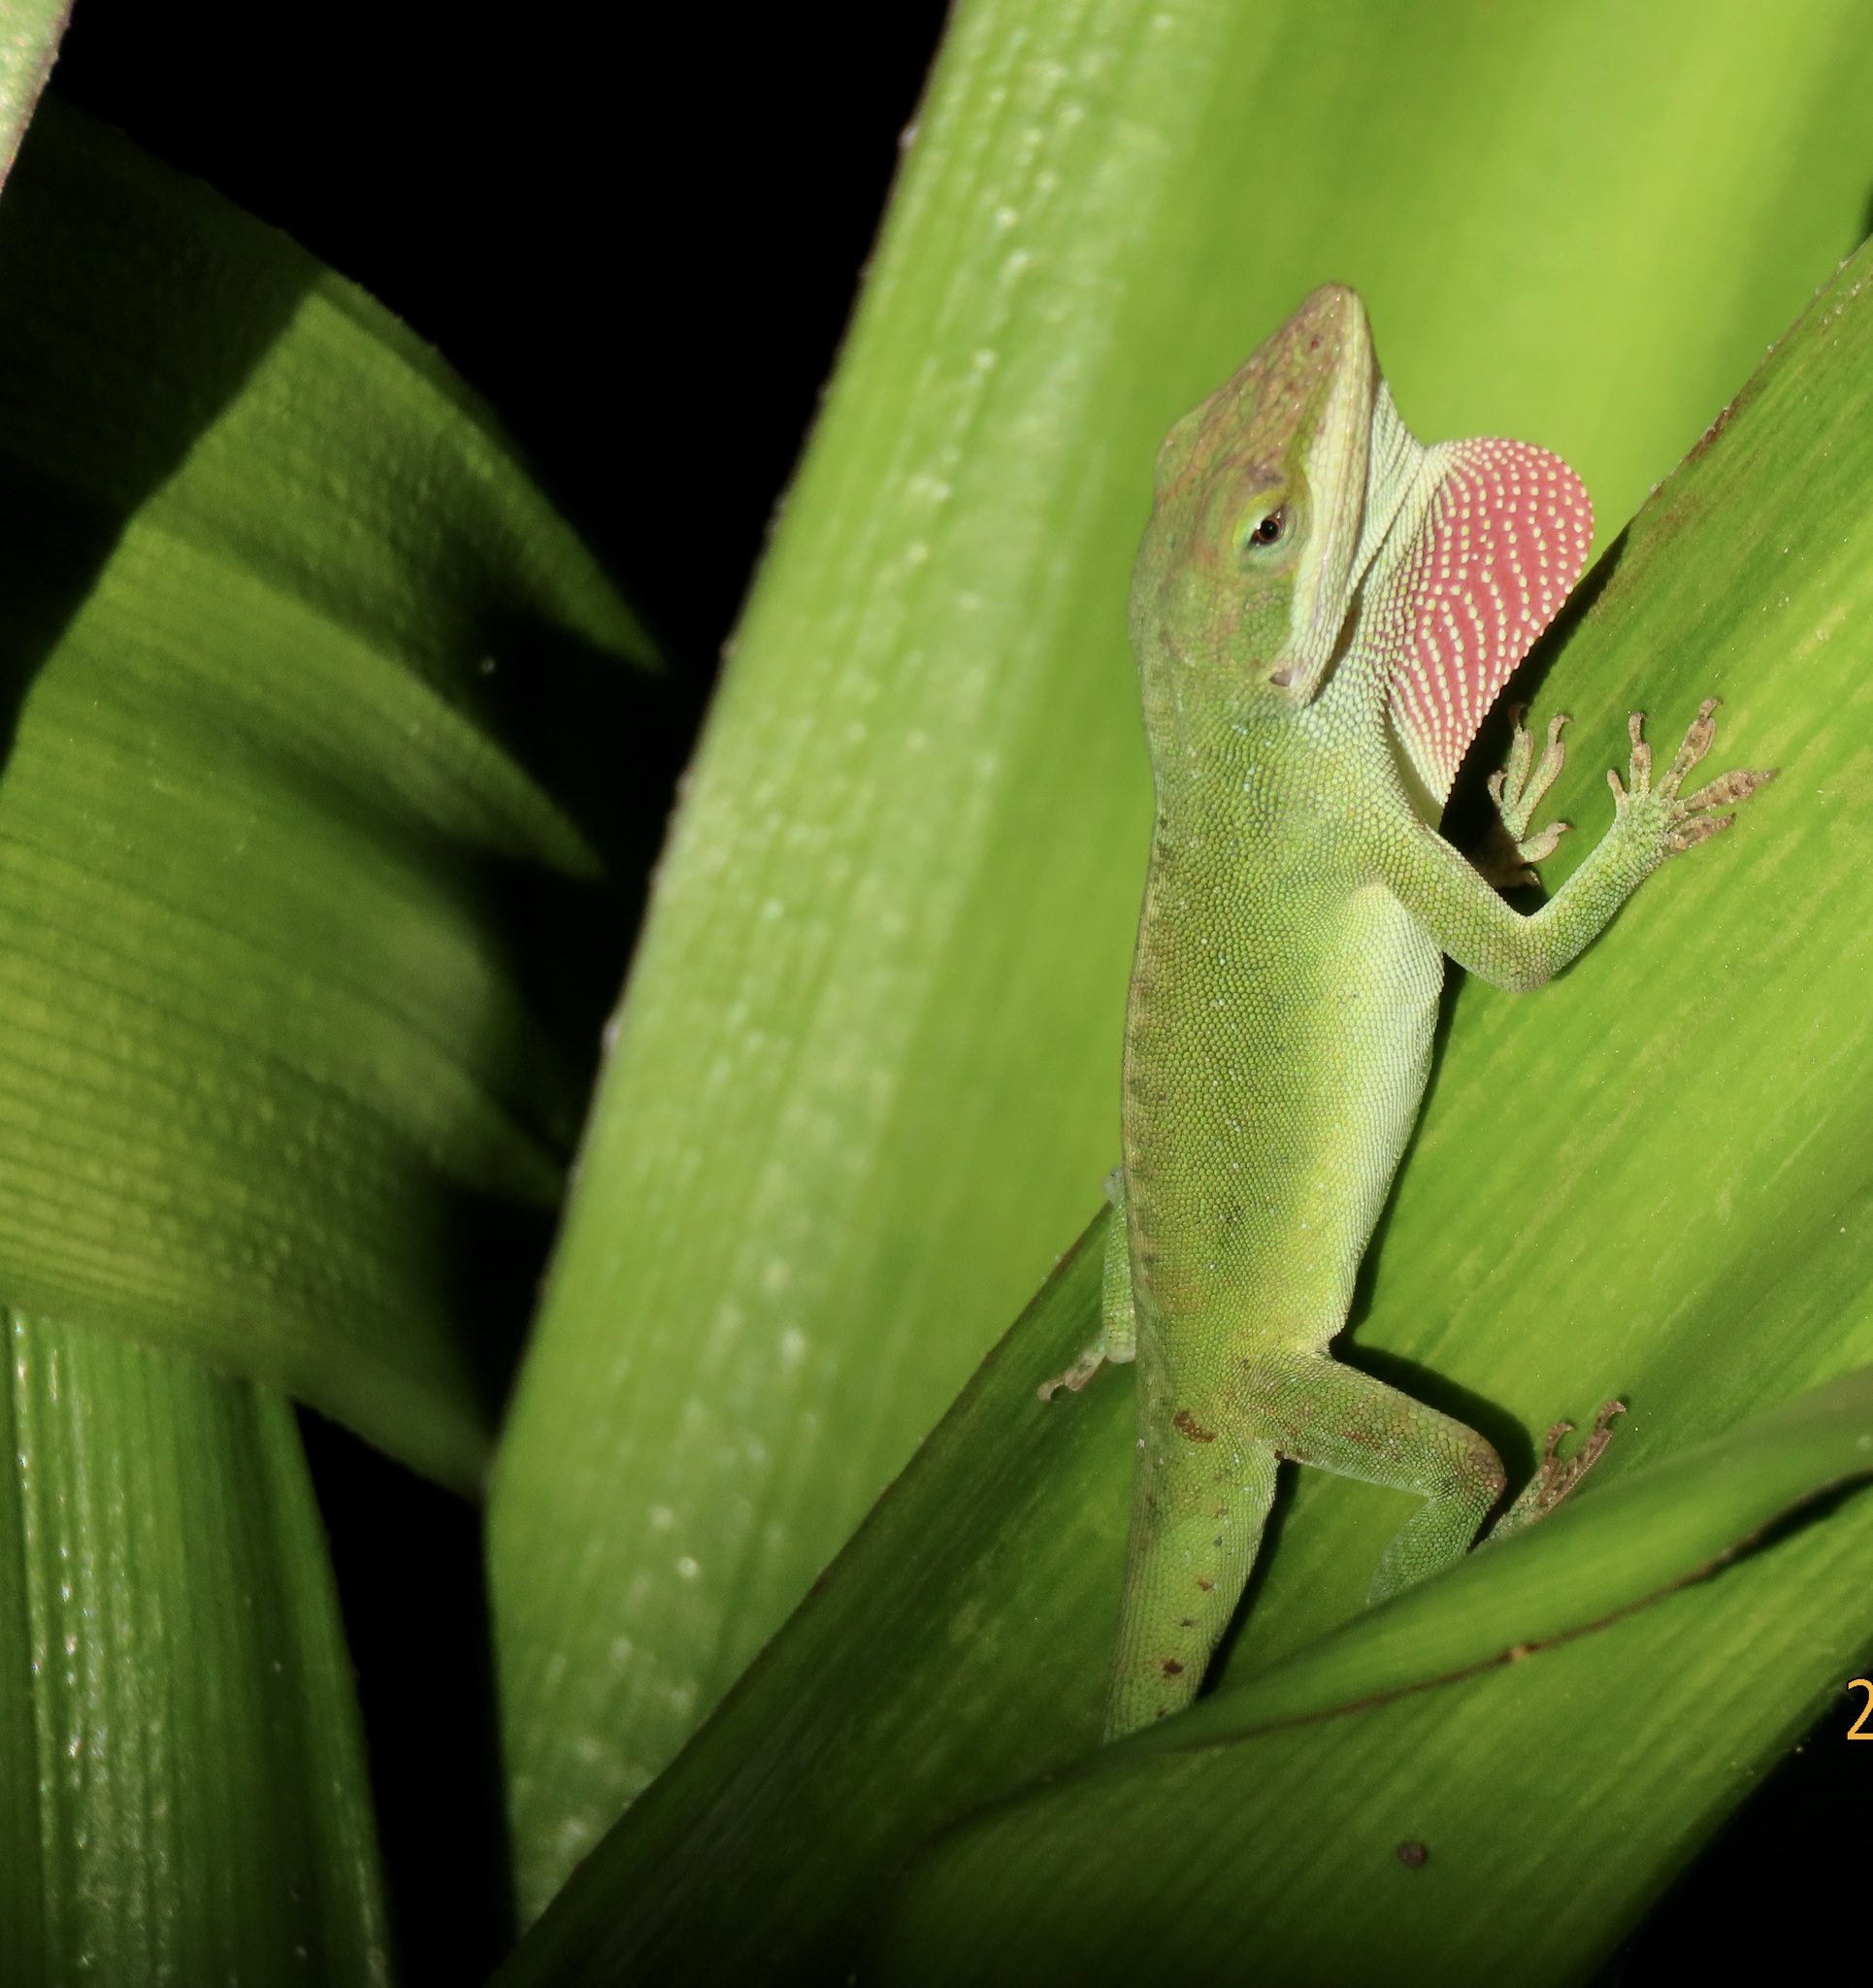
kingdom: Animalia
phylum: Chordata
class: Squamata
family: Dactyloidae
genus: Anolis
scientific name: Anolis carolinensis
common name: Green anole
